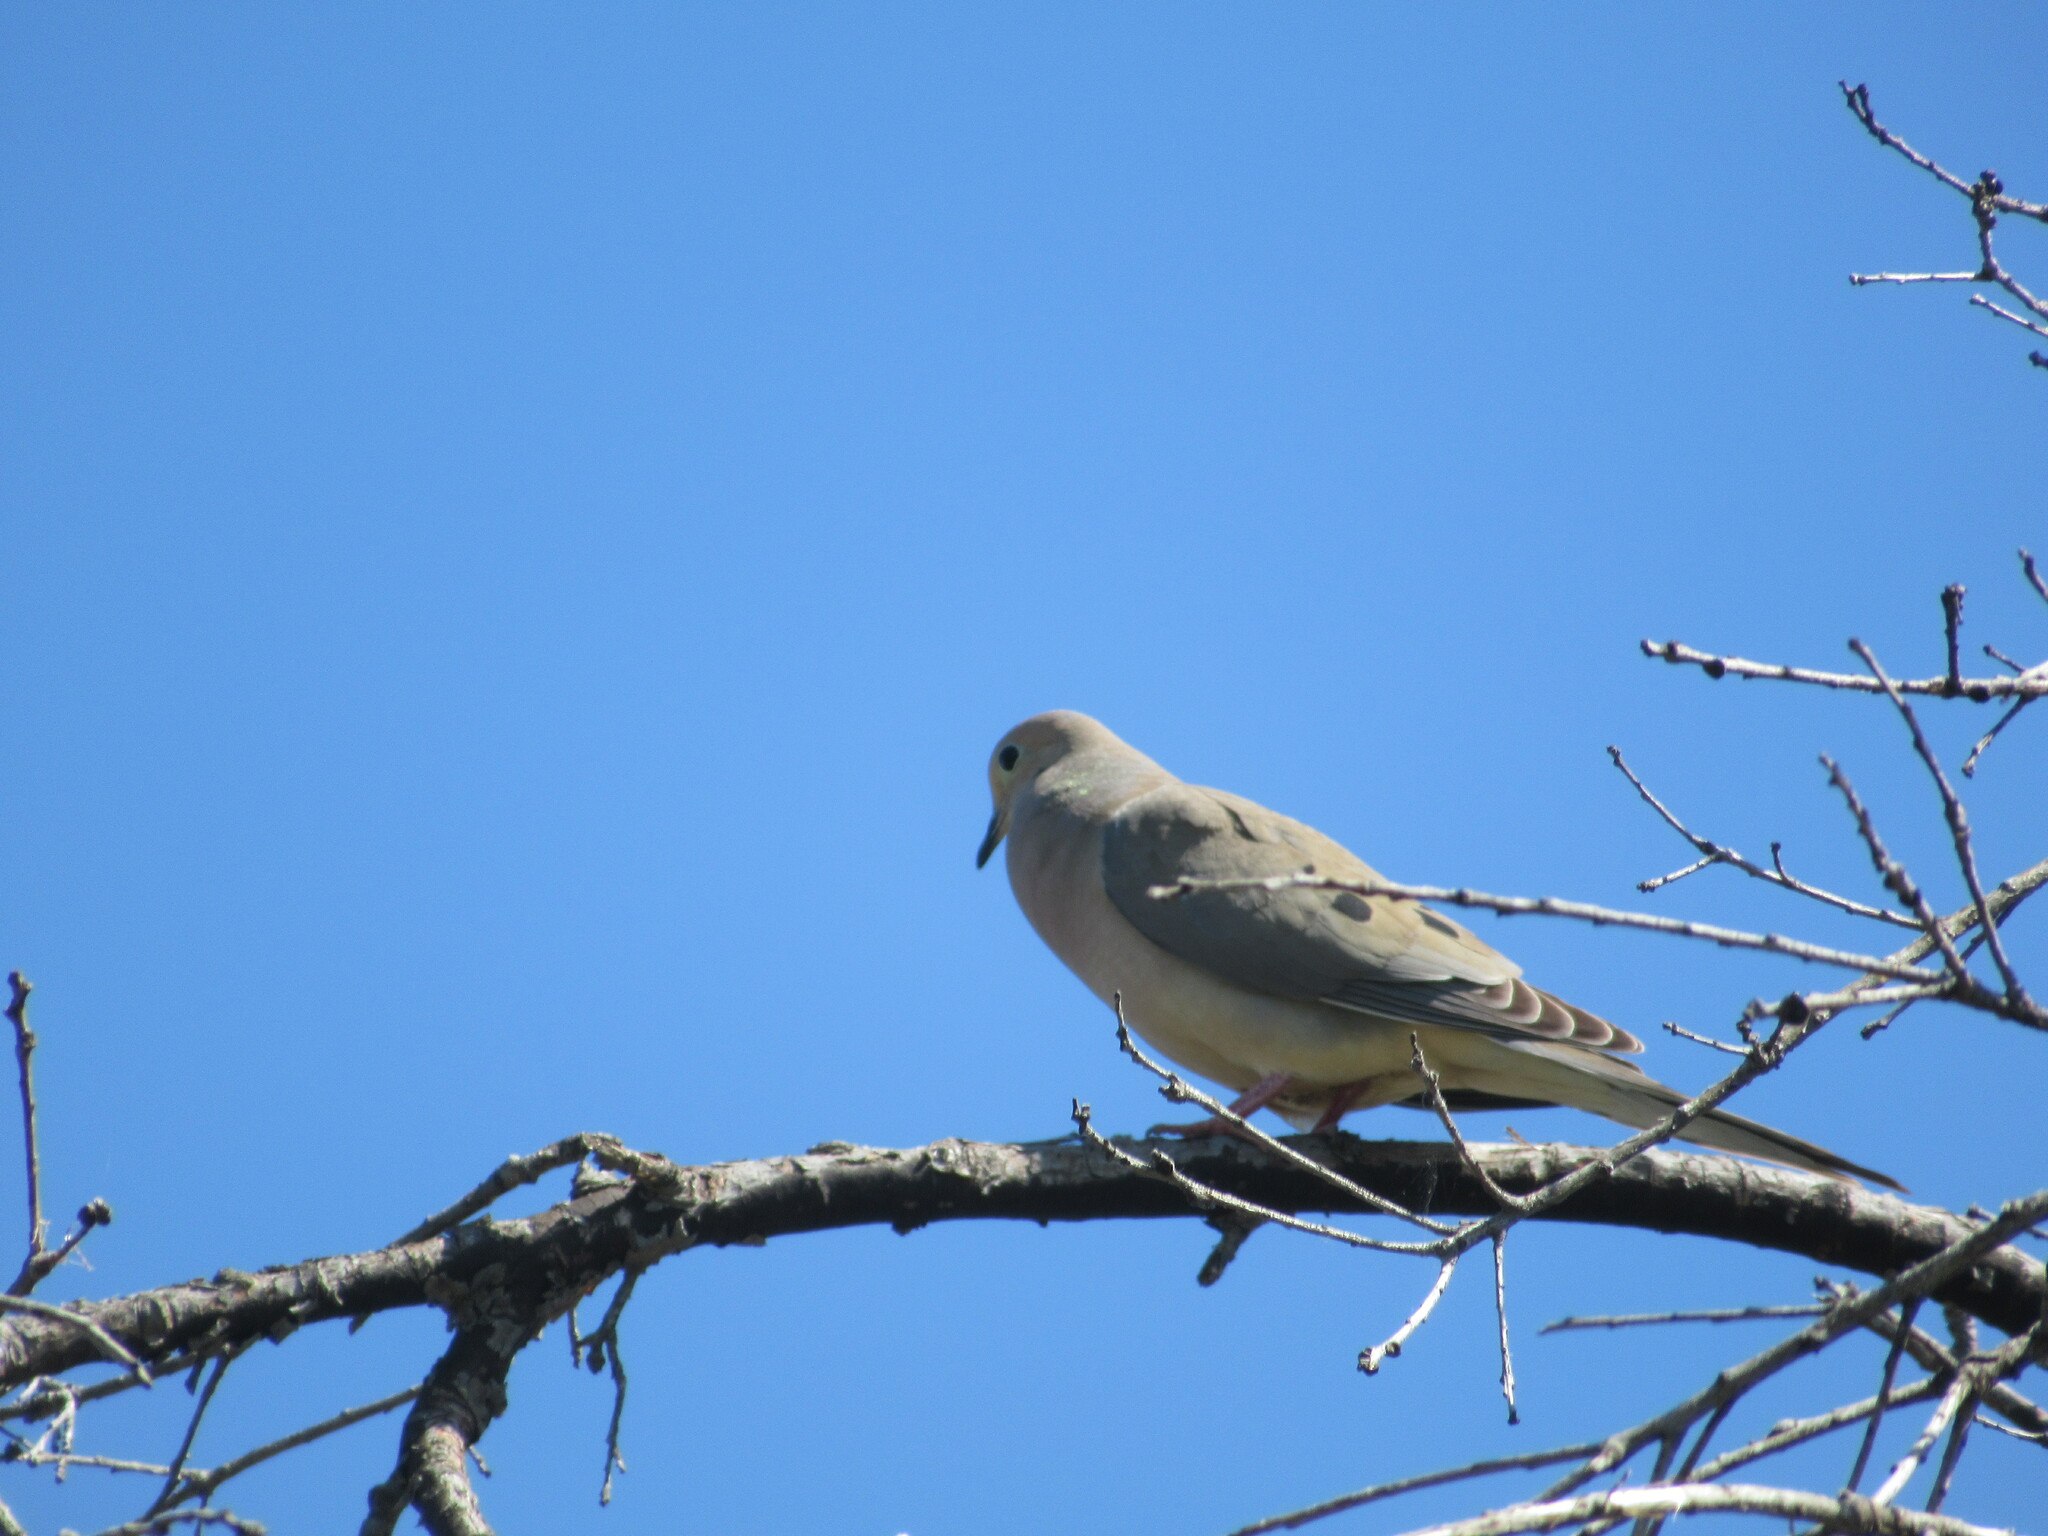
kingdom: Animalia
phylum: Chordata
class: Aves
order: Columbiformes
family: Columbidae
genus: Zenaida
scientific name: Zenaida macroura
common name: Mourning dove
